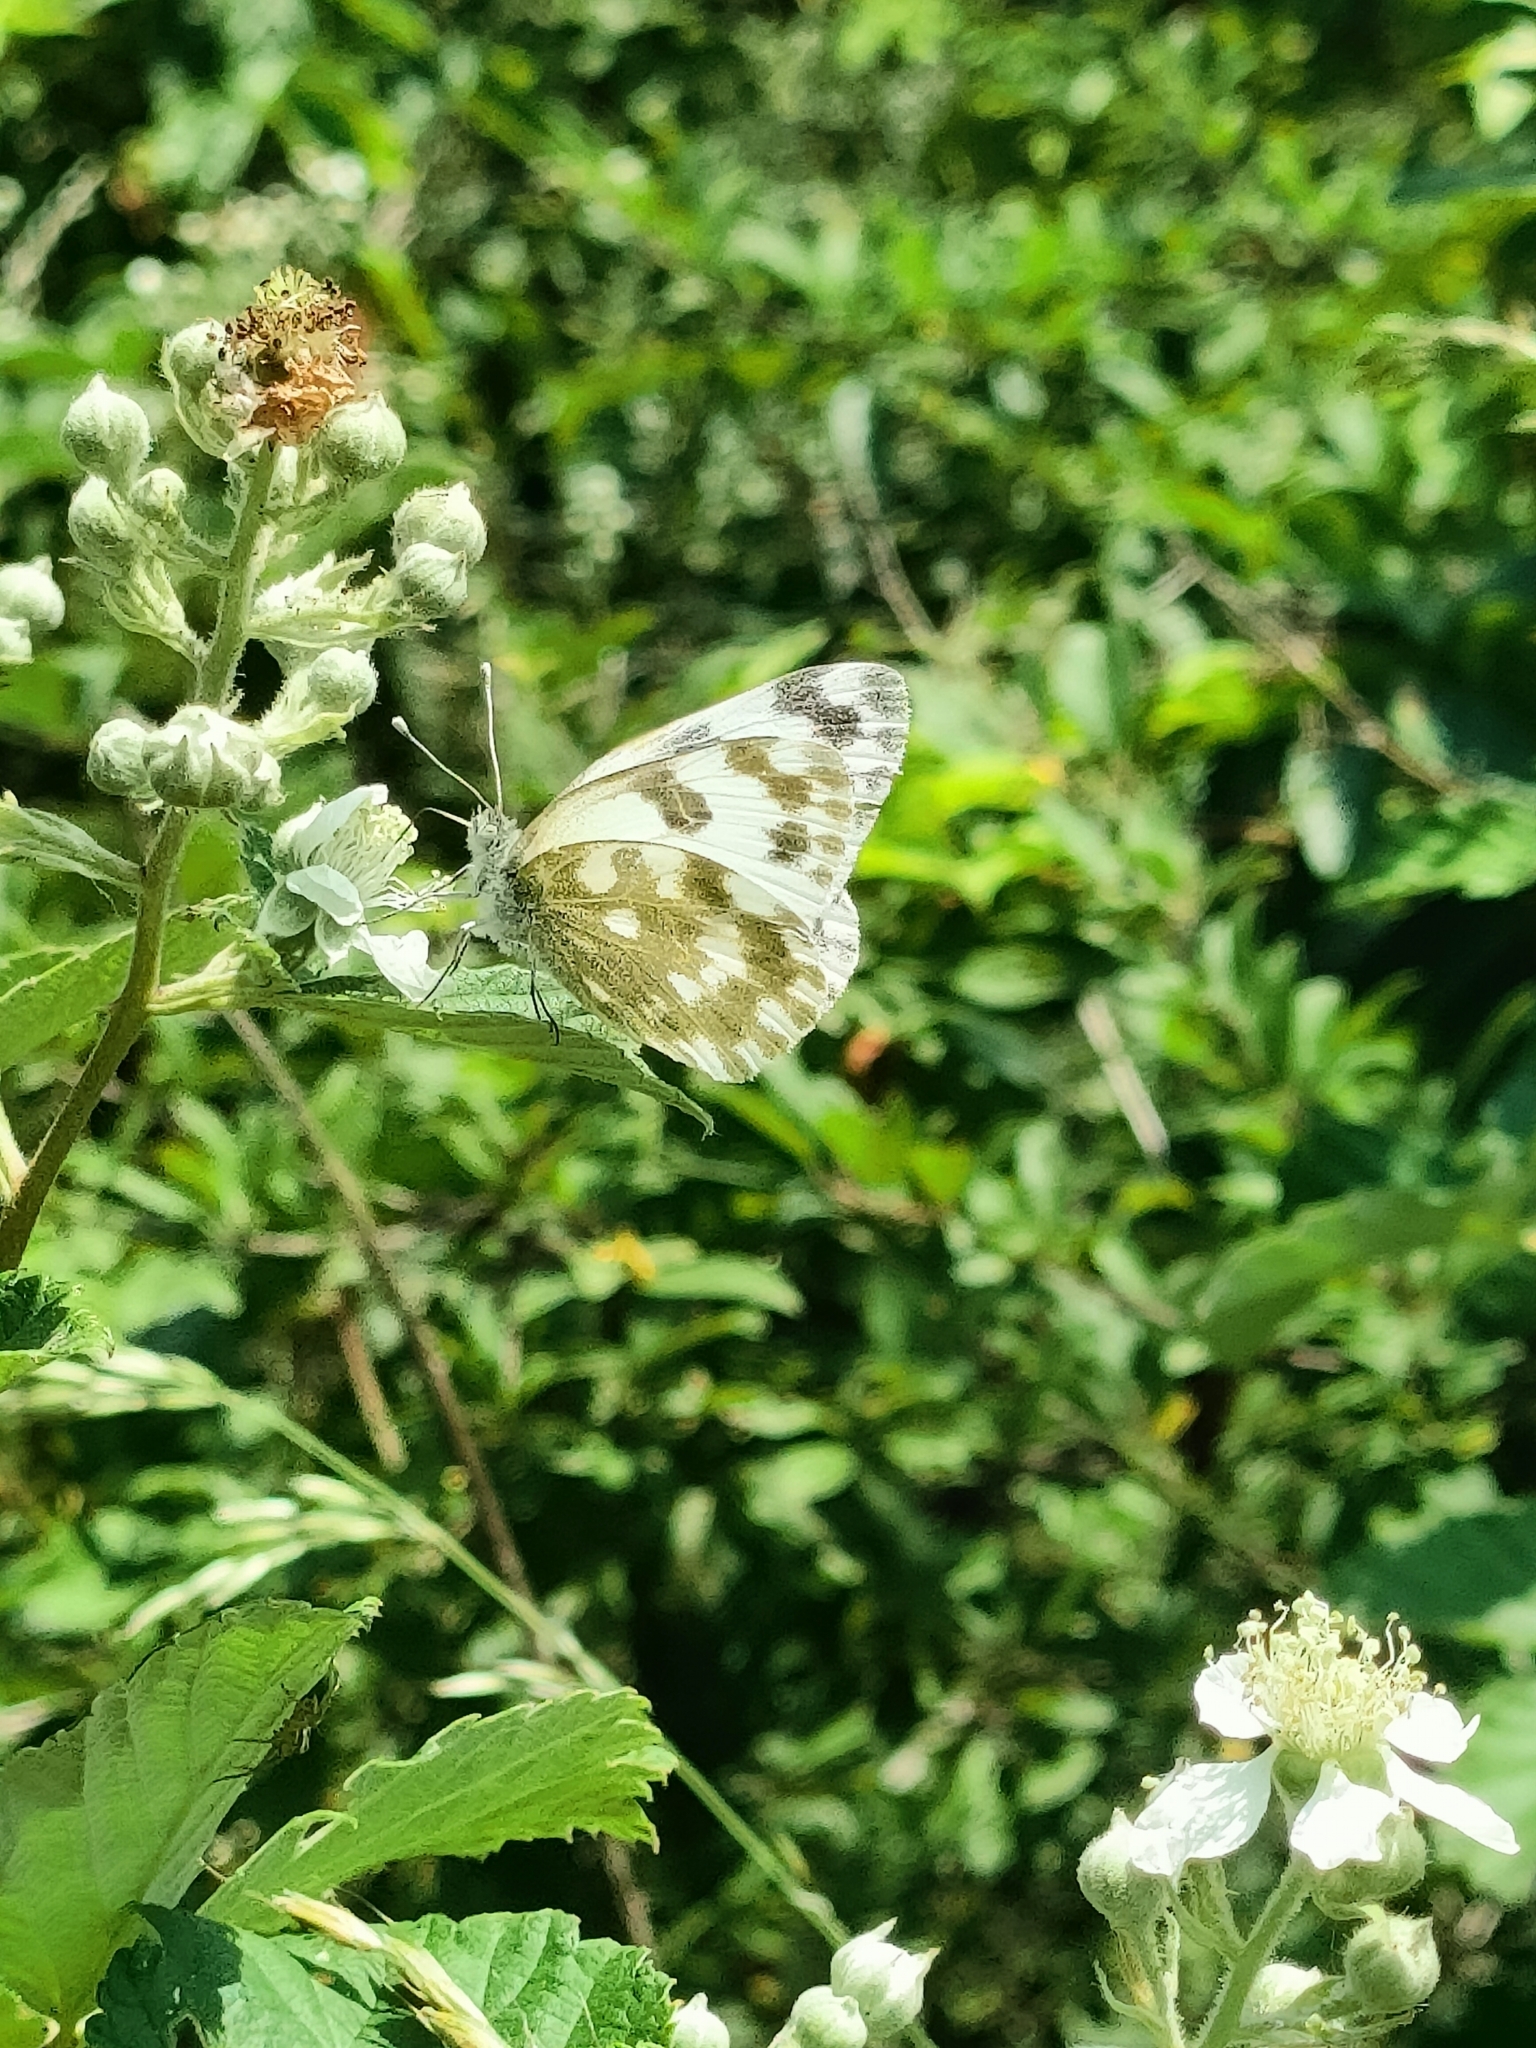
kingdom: Animalia
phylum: Arthropoda
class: Insecta
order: Lepidoptera
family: Pieridae
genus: Pontia
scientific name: Pontia edusa
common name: Eastern bath white
